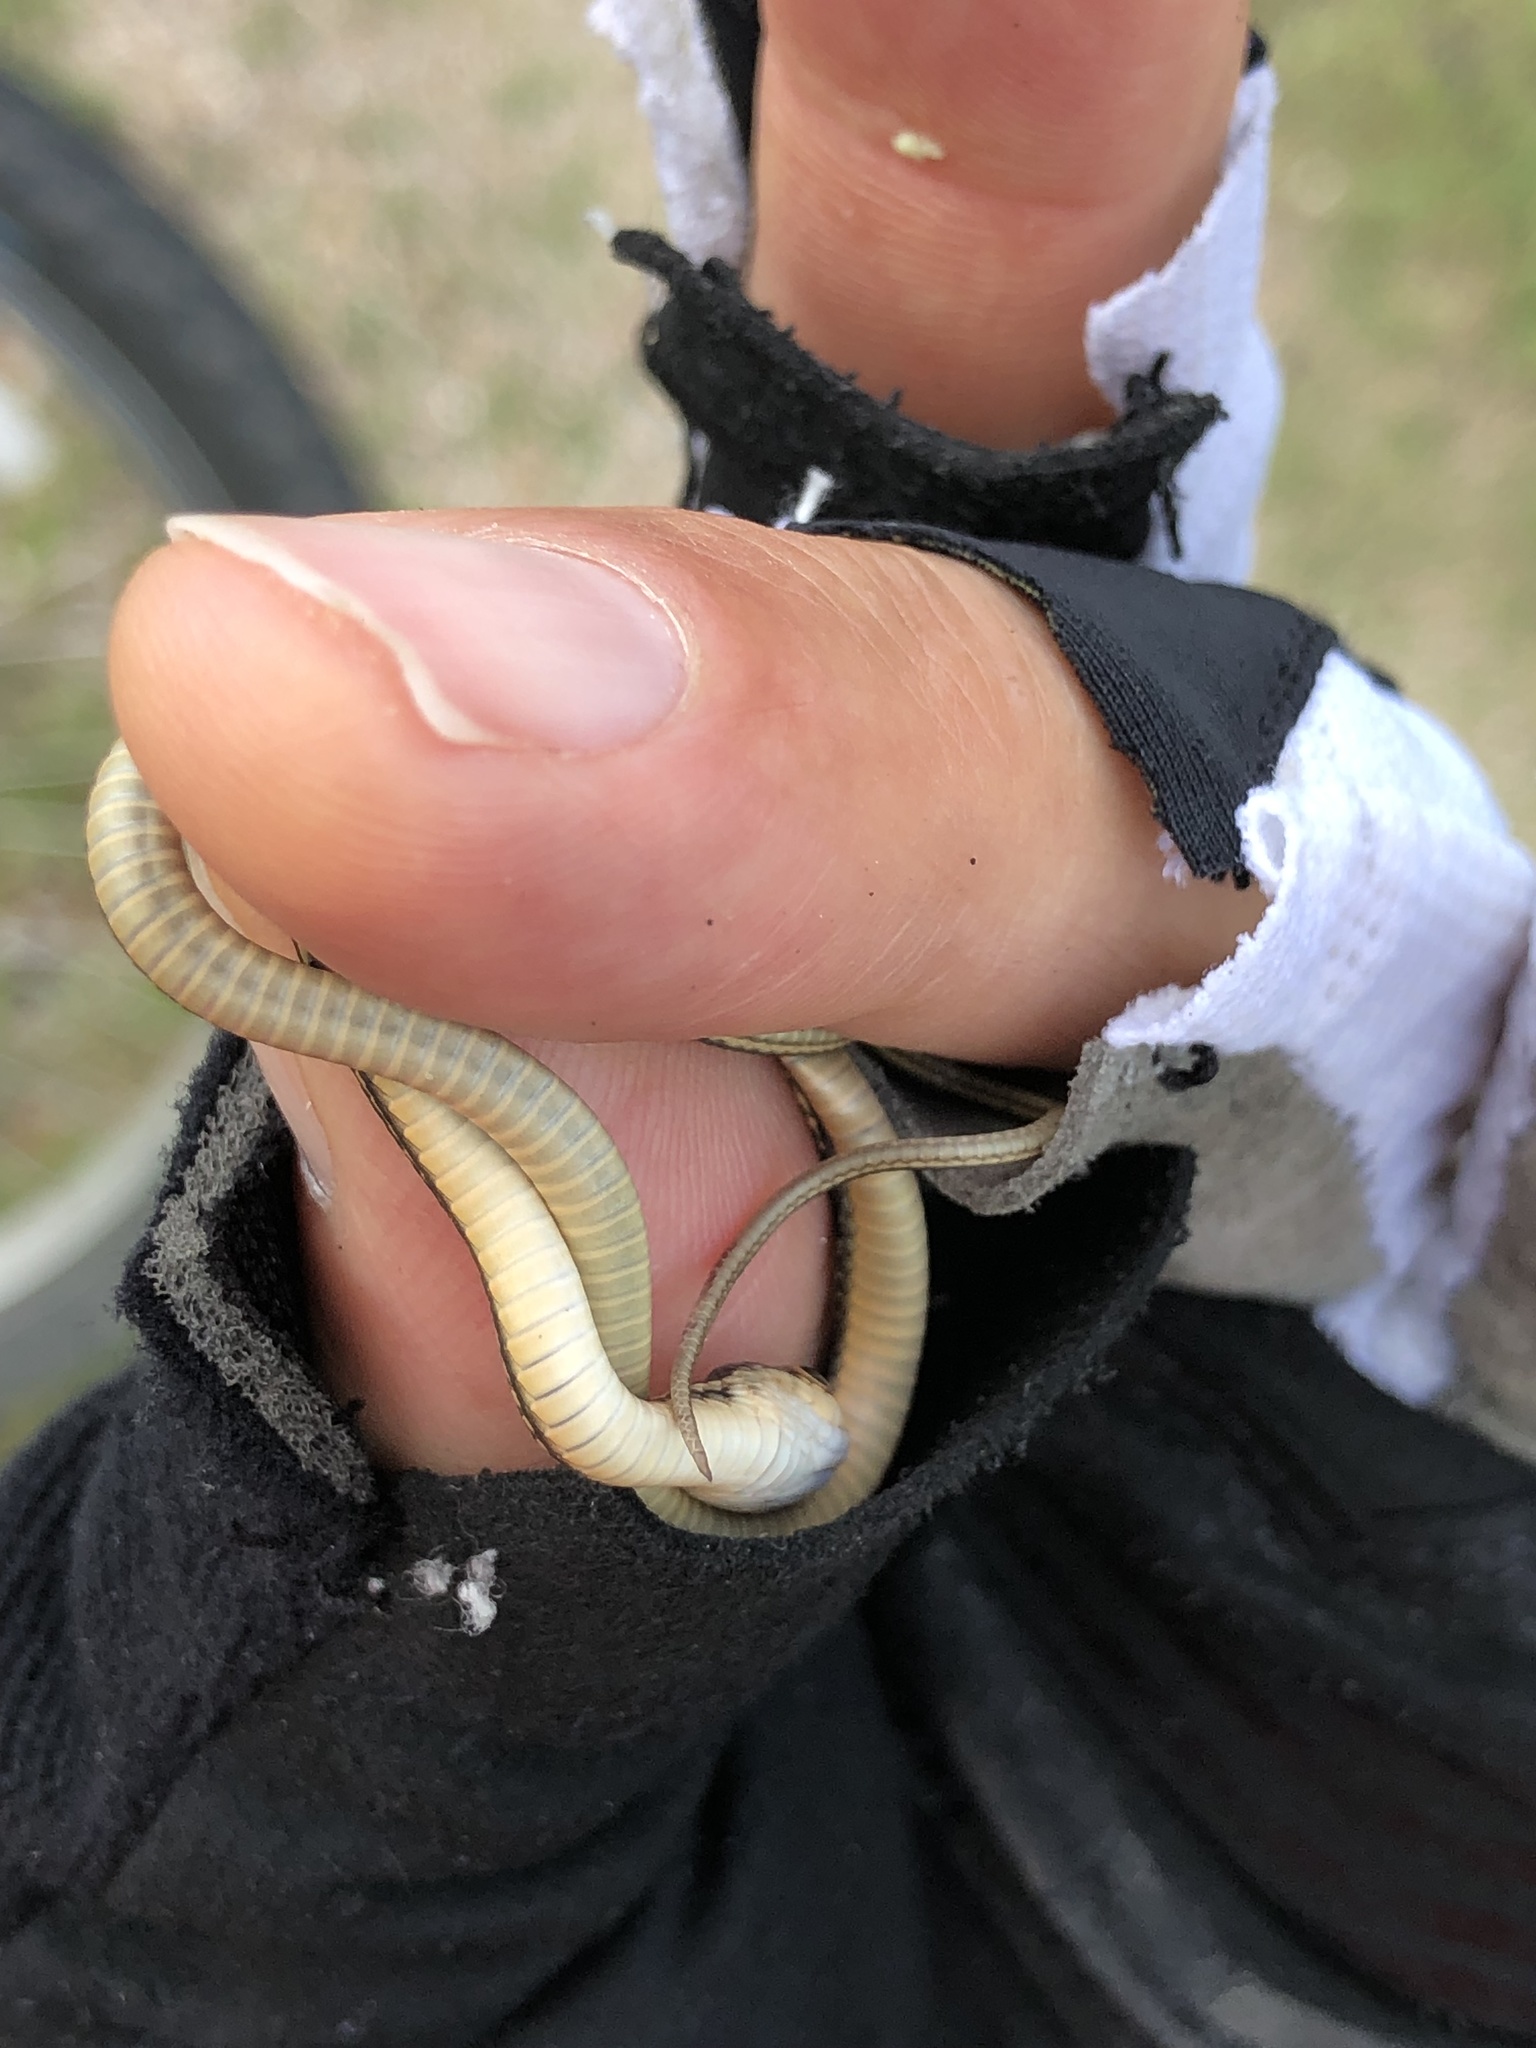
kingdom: Animalia
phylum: Chordata
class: Squamata
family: Colubridae
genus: Thamnophis
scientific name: Thamnophis proximus
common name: Western ribbon snake
